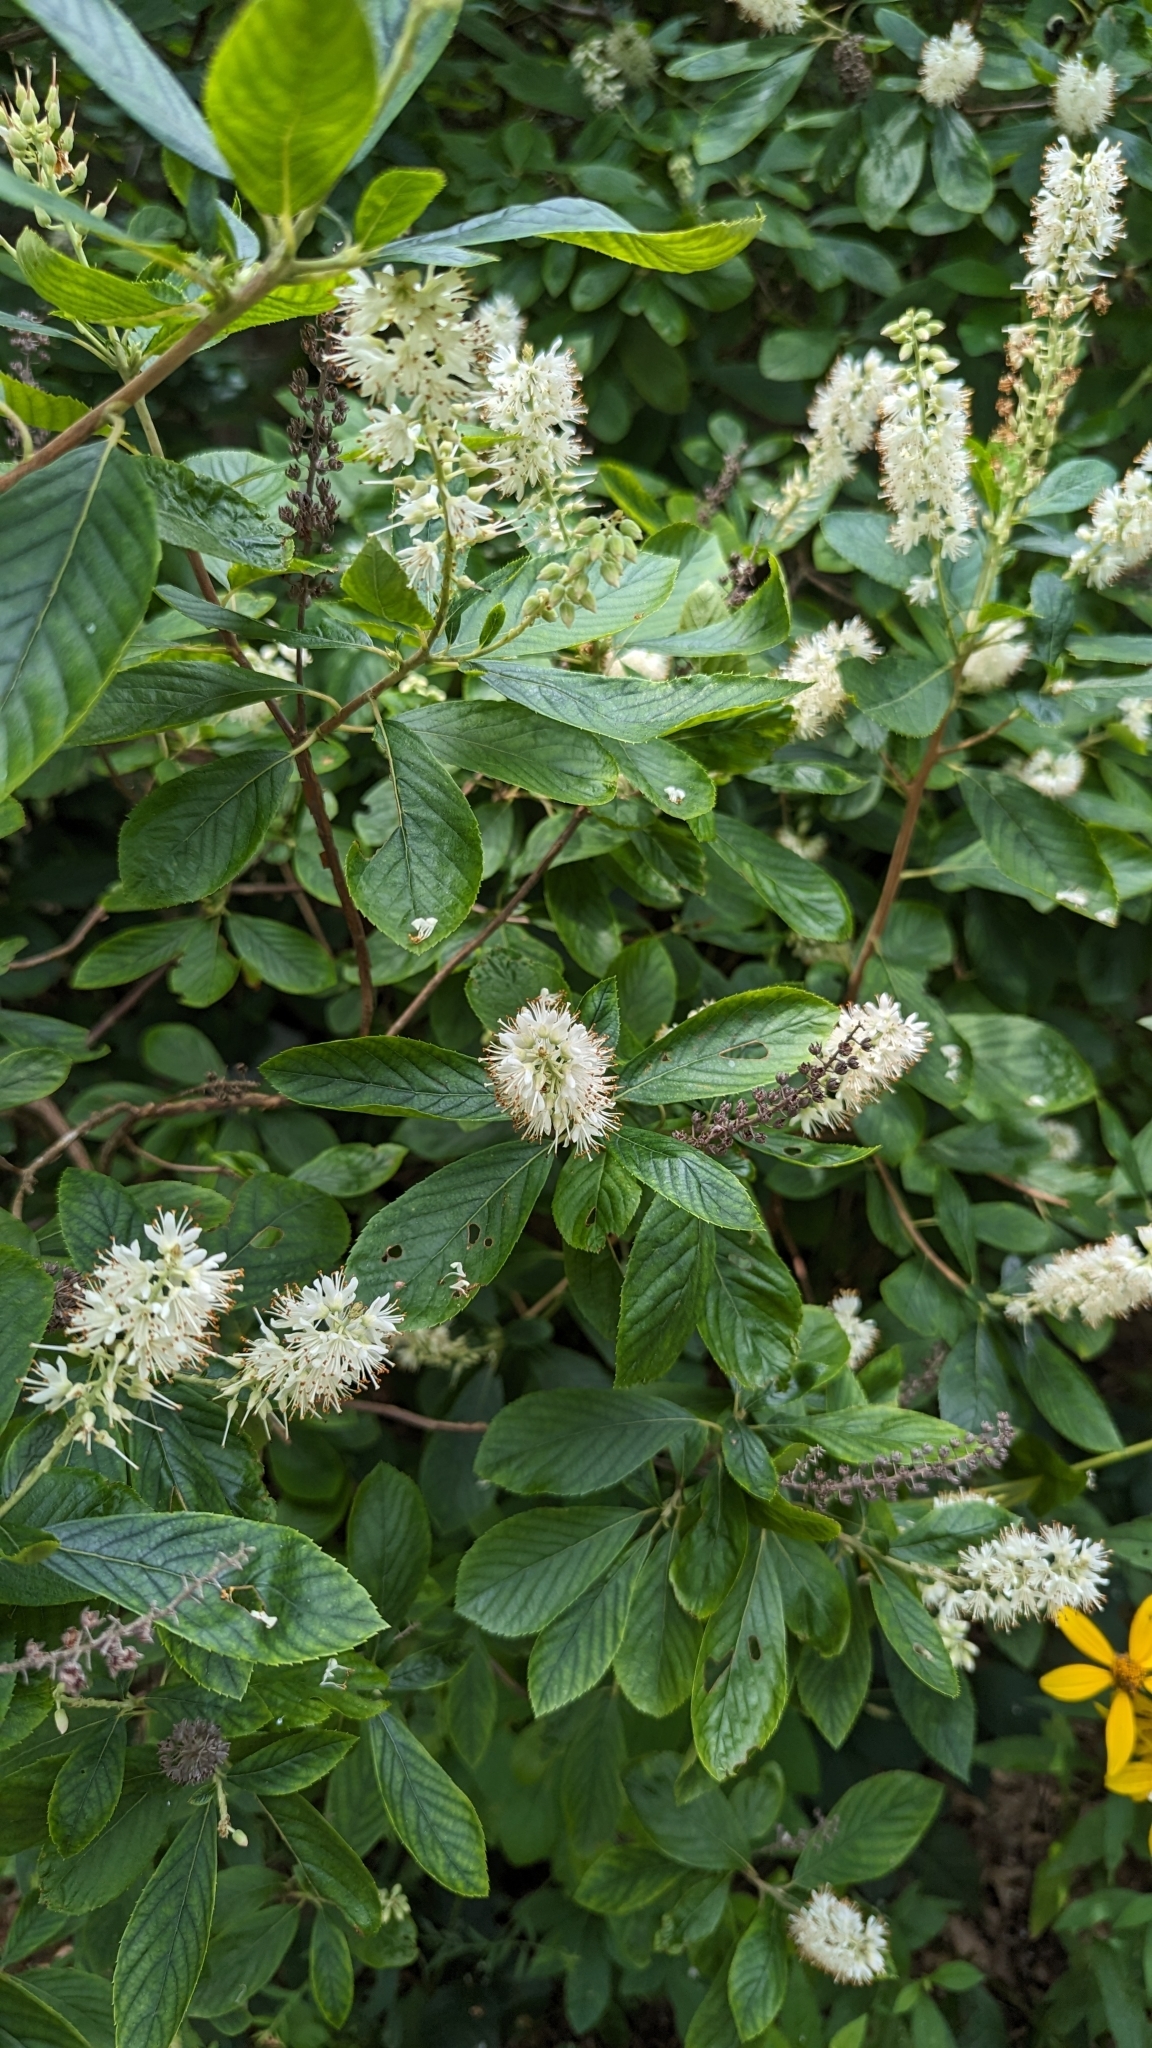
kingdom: Plantae
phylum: Tracheophyta
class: Magnoliopsida
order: Ericales
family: Clethraceae
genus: Clethra
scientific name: Clethra alnifolia
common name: Sweet pepperbush
